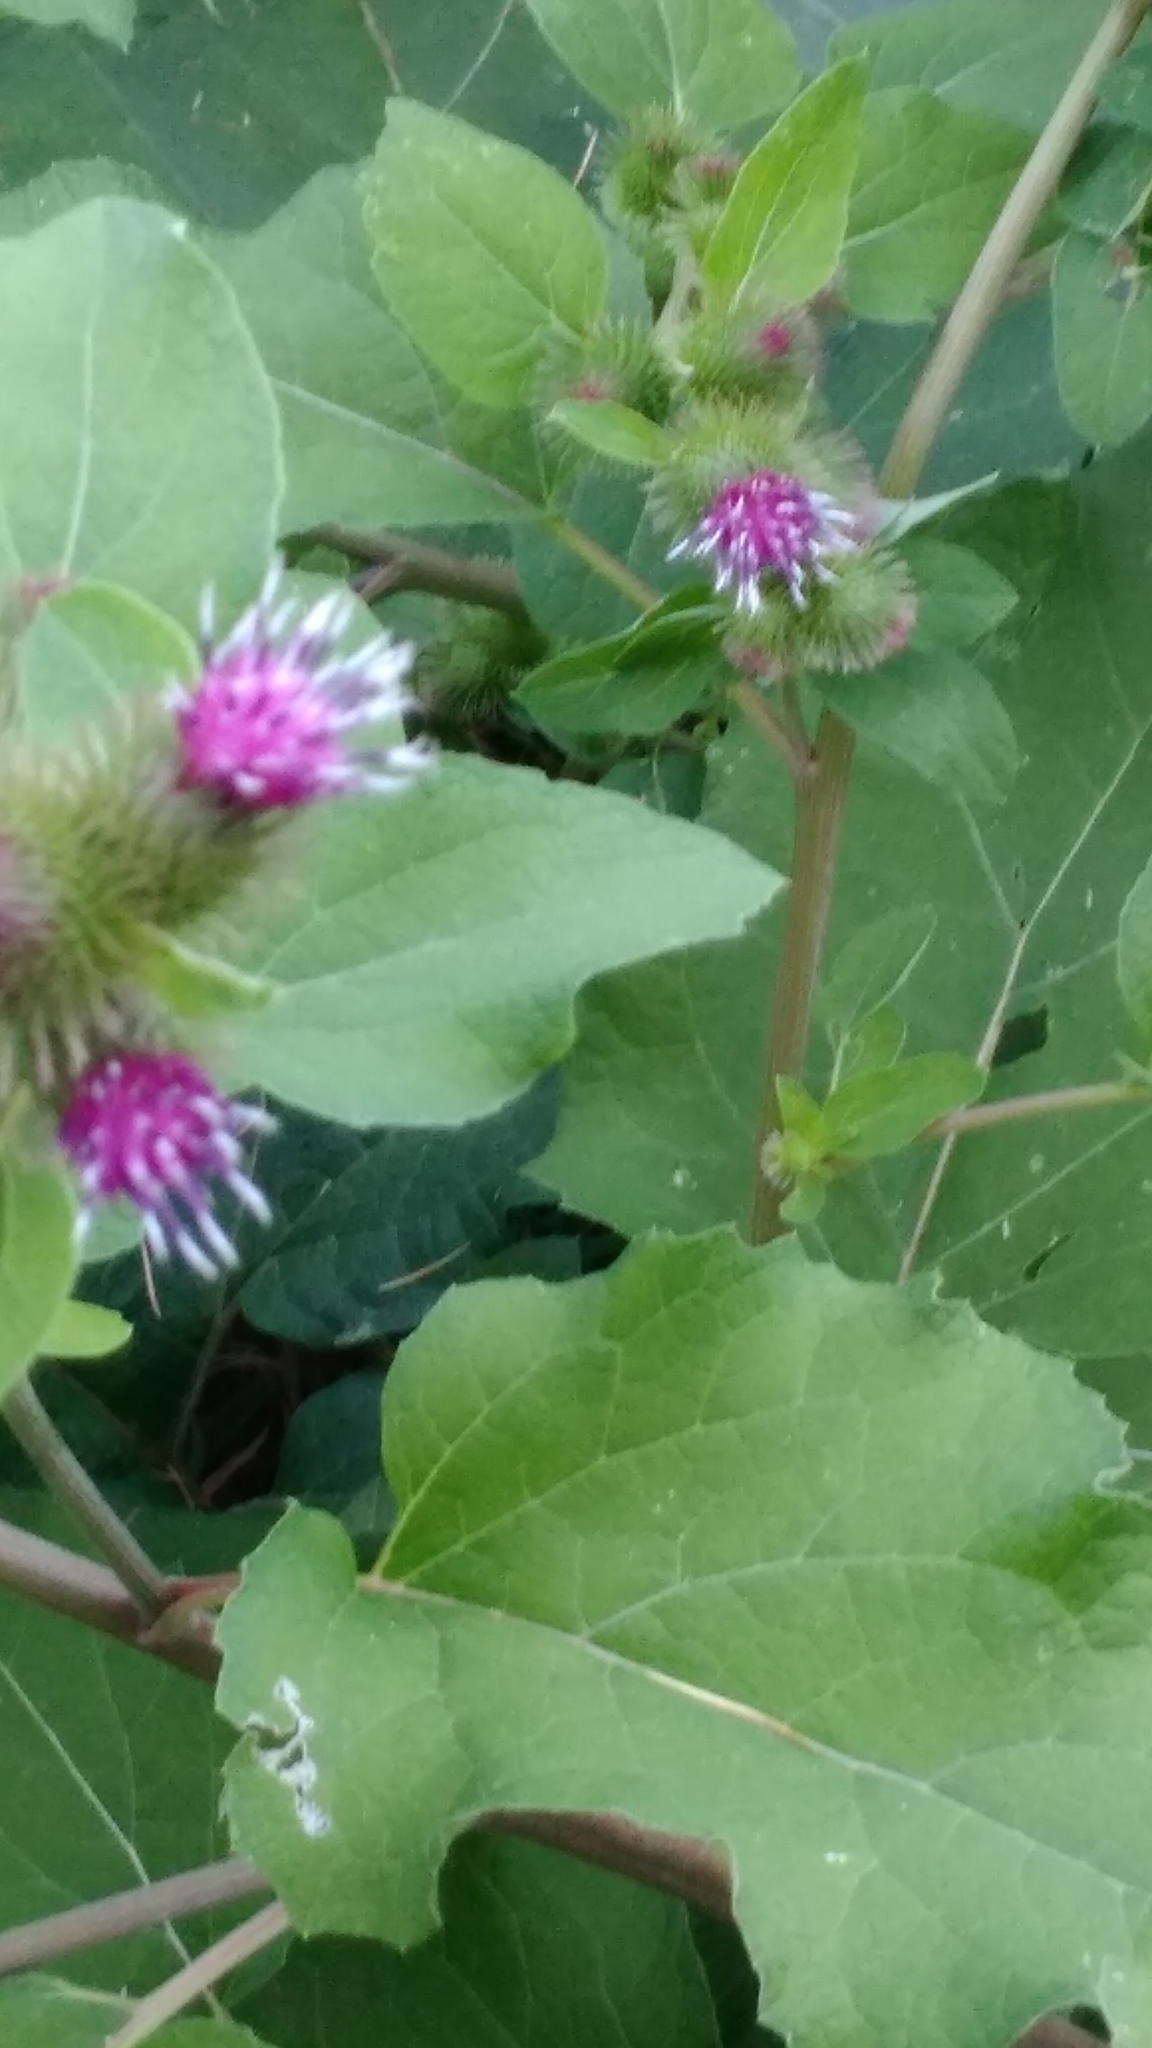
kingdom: Plantae
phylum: Tracheophyta
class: Magnoliopsida
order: Asterales
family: Asteraceae
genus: Arctium
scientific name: Arctium minus
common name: Lesser burdock
